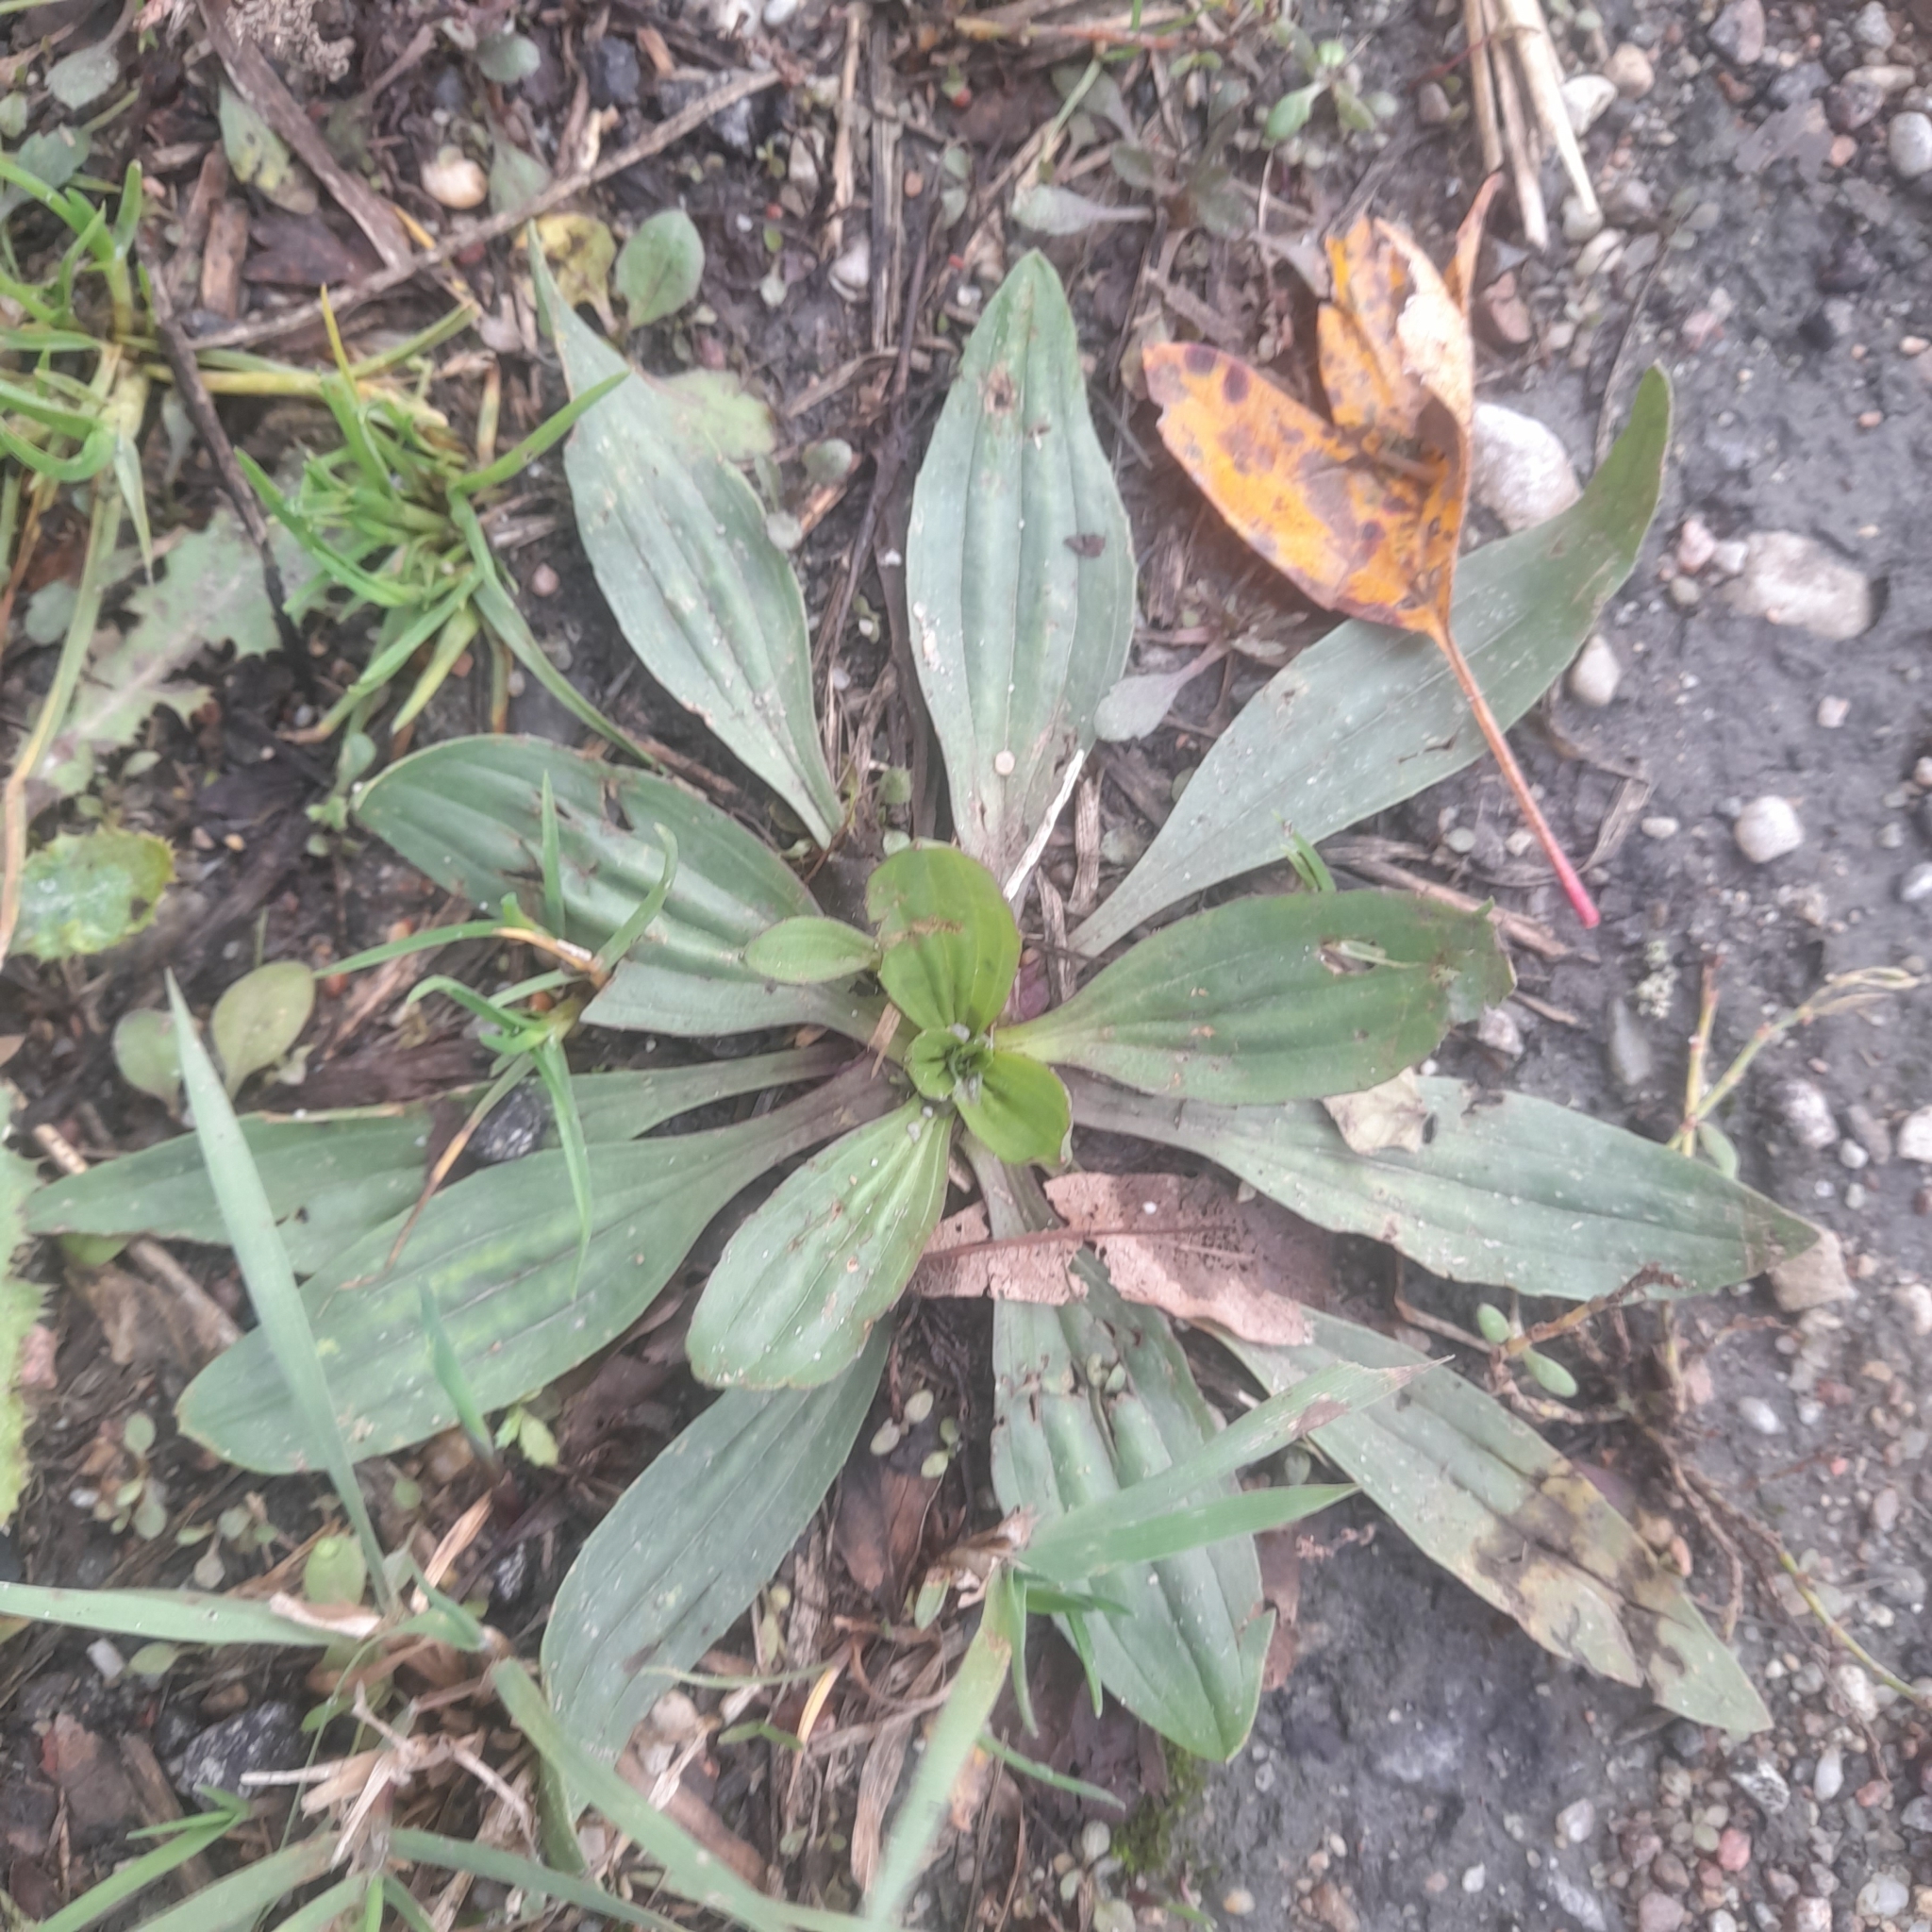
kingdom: Plantae
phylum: Tracheophyta
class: Magnoliopsida
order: Lamiales
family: Plantaginaceae
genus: Plantago
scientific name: Plantago lanceolata
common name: Ribwort plantain
